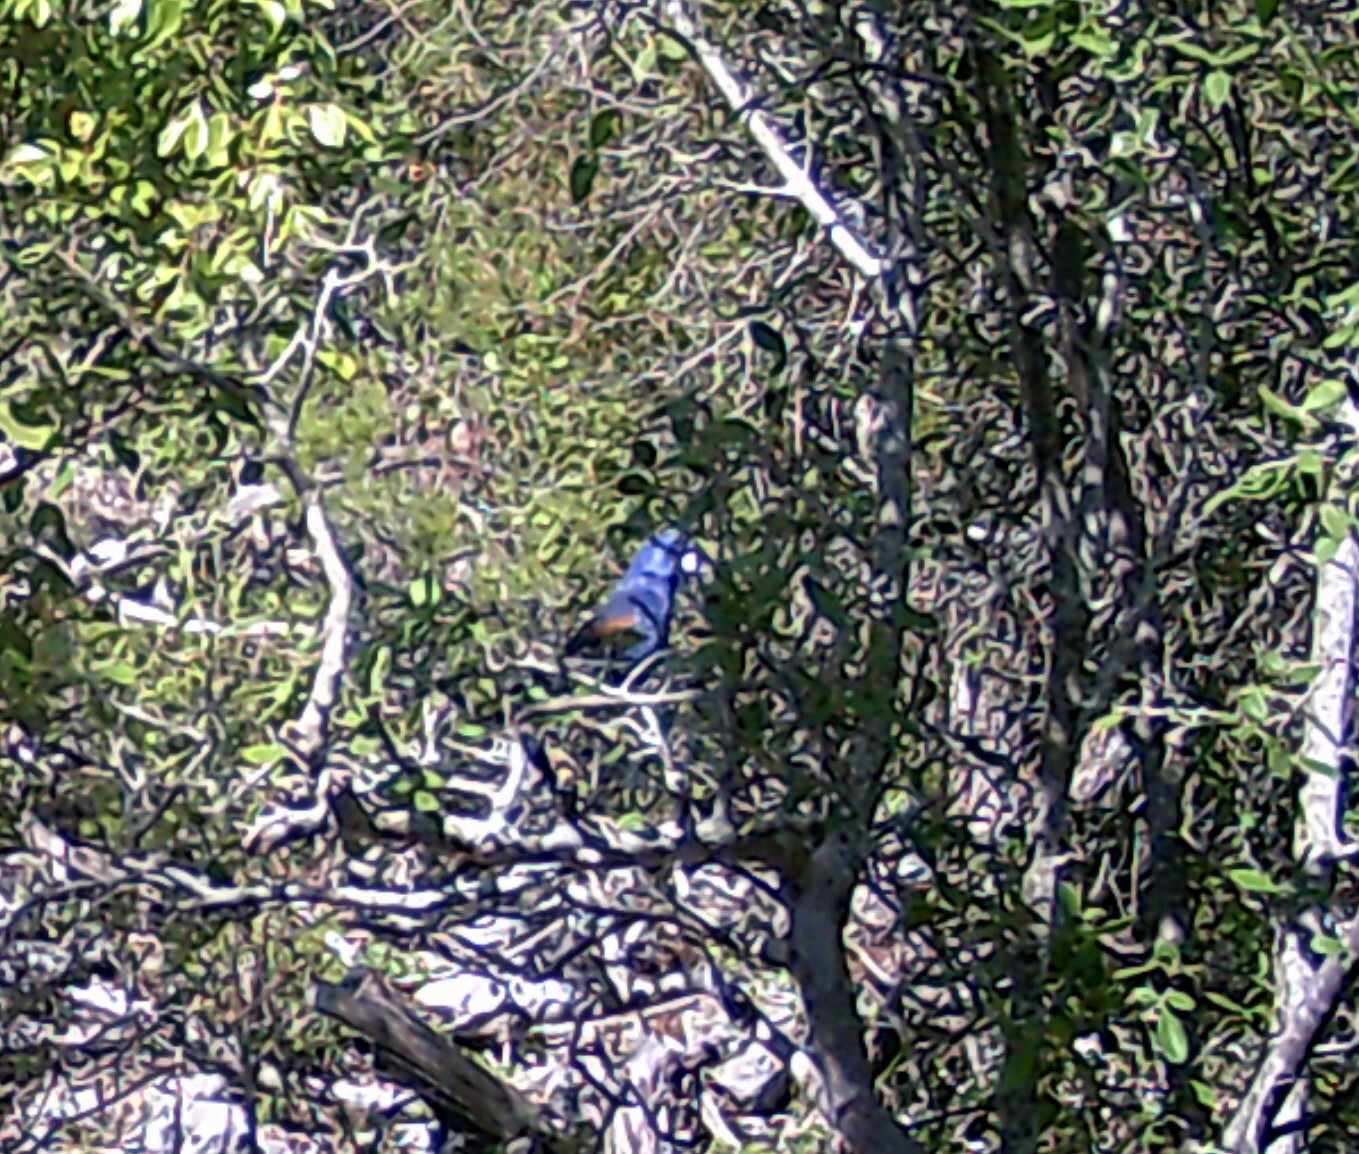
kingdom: Animalia
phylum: Chordata
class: Aves
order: Passeriformes
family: Cardinalidae
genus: Passerina
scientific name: Passerina caerulea
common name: Blue grosbeak
